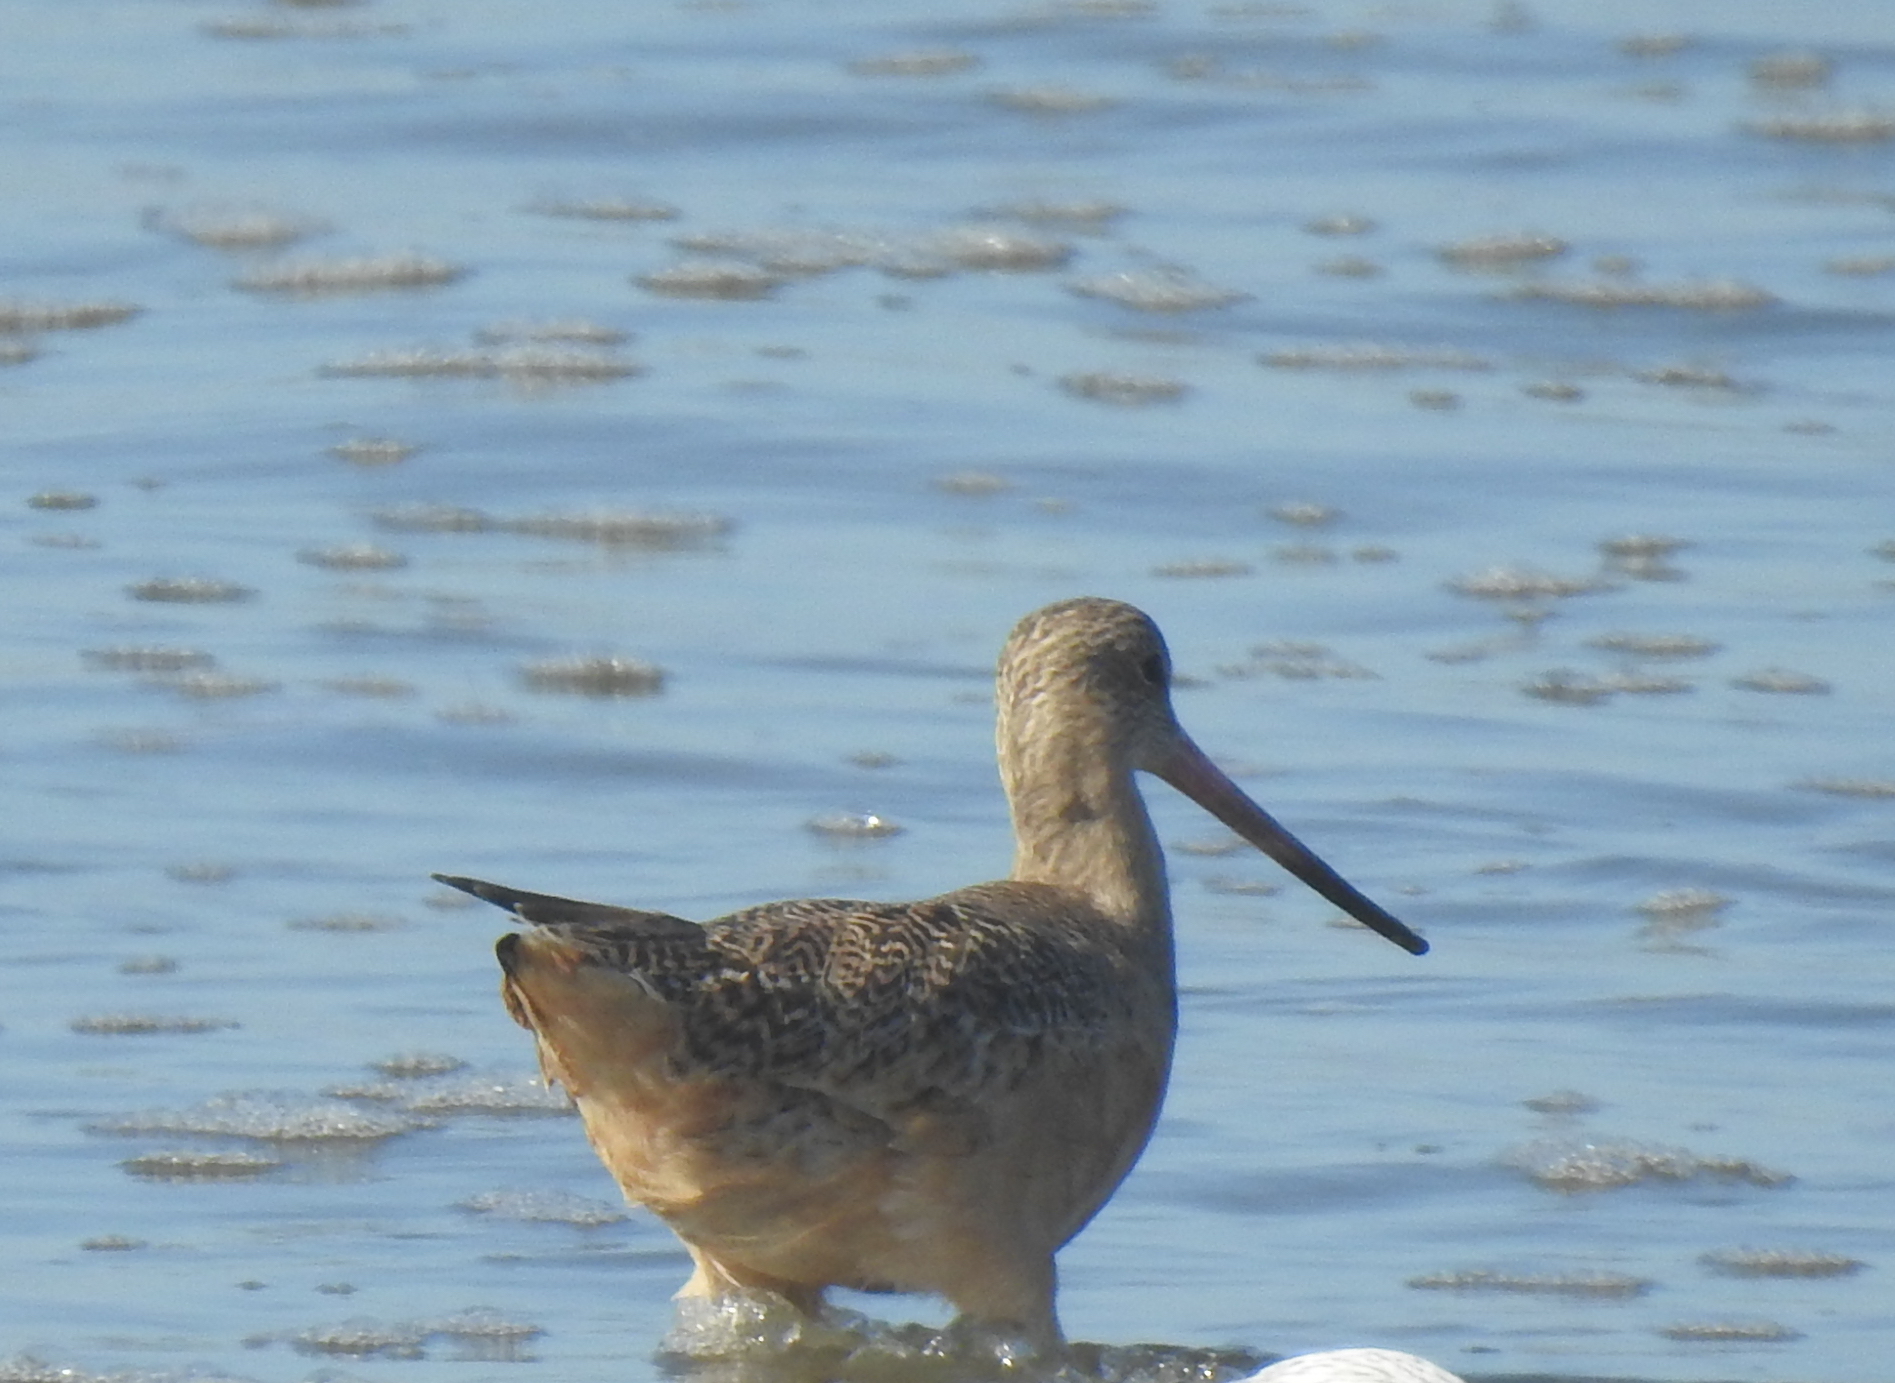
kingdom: Animalia
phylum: Chordata
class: Aves
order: Charadriiformes
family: Scolopacidae
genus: Limosa
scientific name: Limosa fedoa
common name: Marbled godwit
